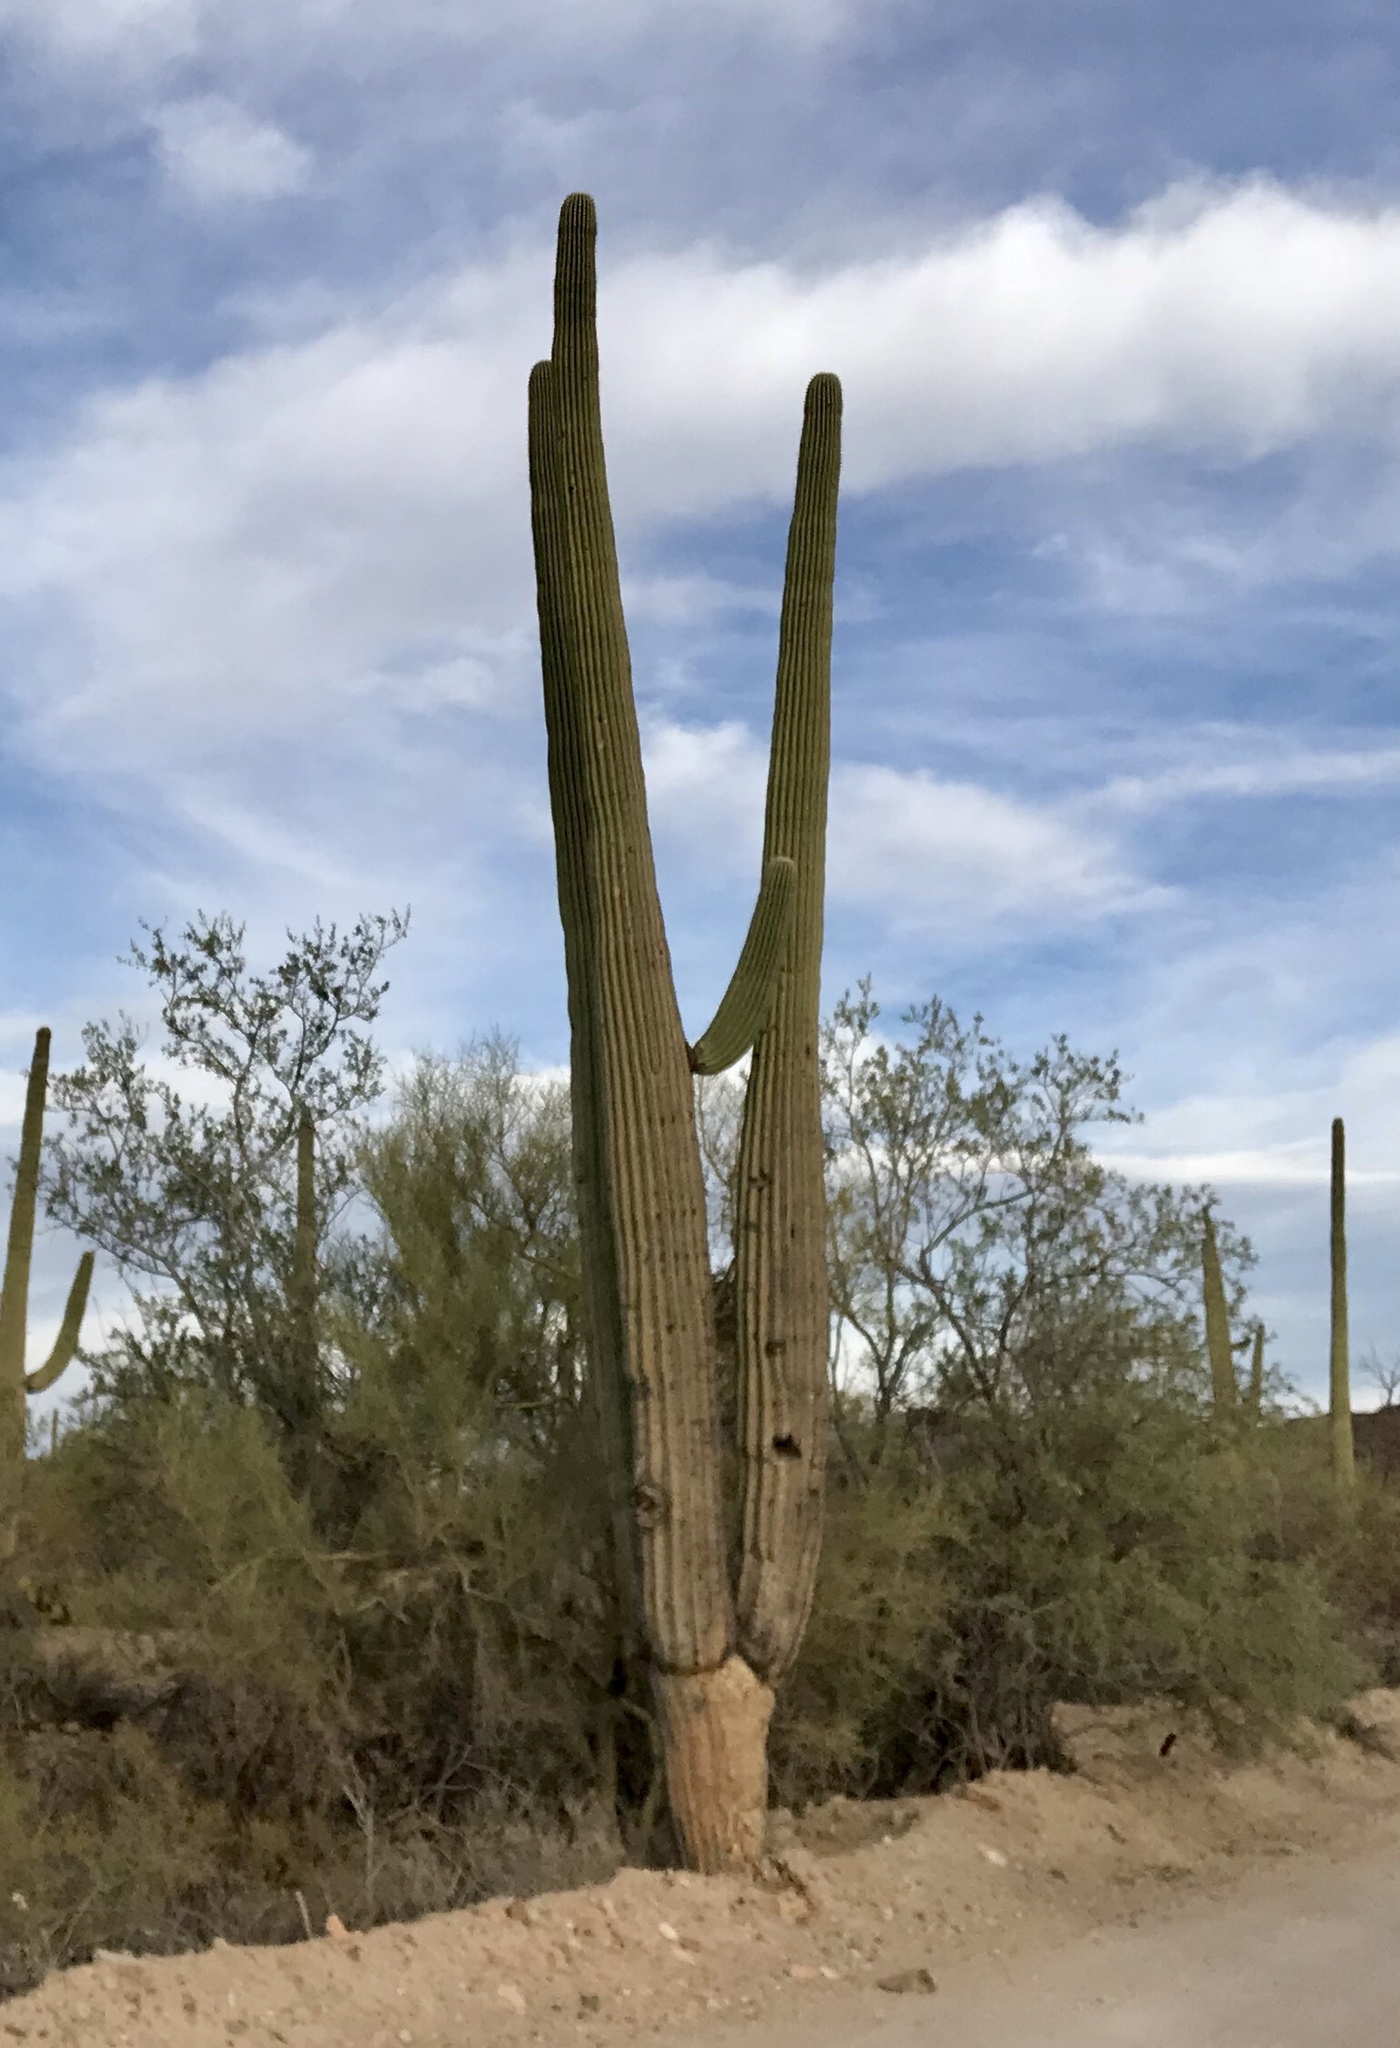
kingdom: Plantae
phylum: Tracheophyta
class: Magnoliopsida
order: Caryophyllales
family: Cactaceae
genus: Carnegiea
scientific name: Carnegiea gigantea
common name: Saguaro
